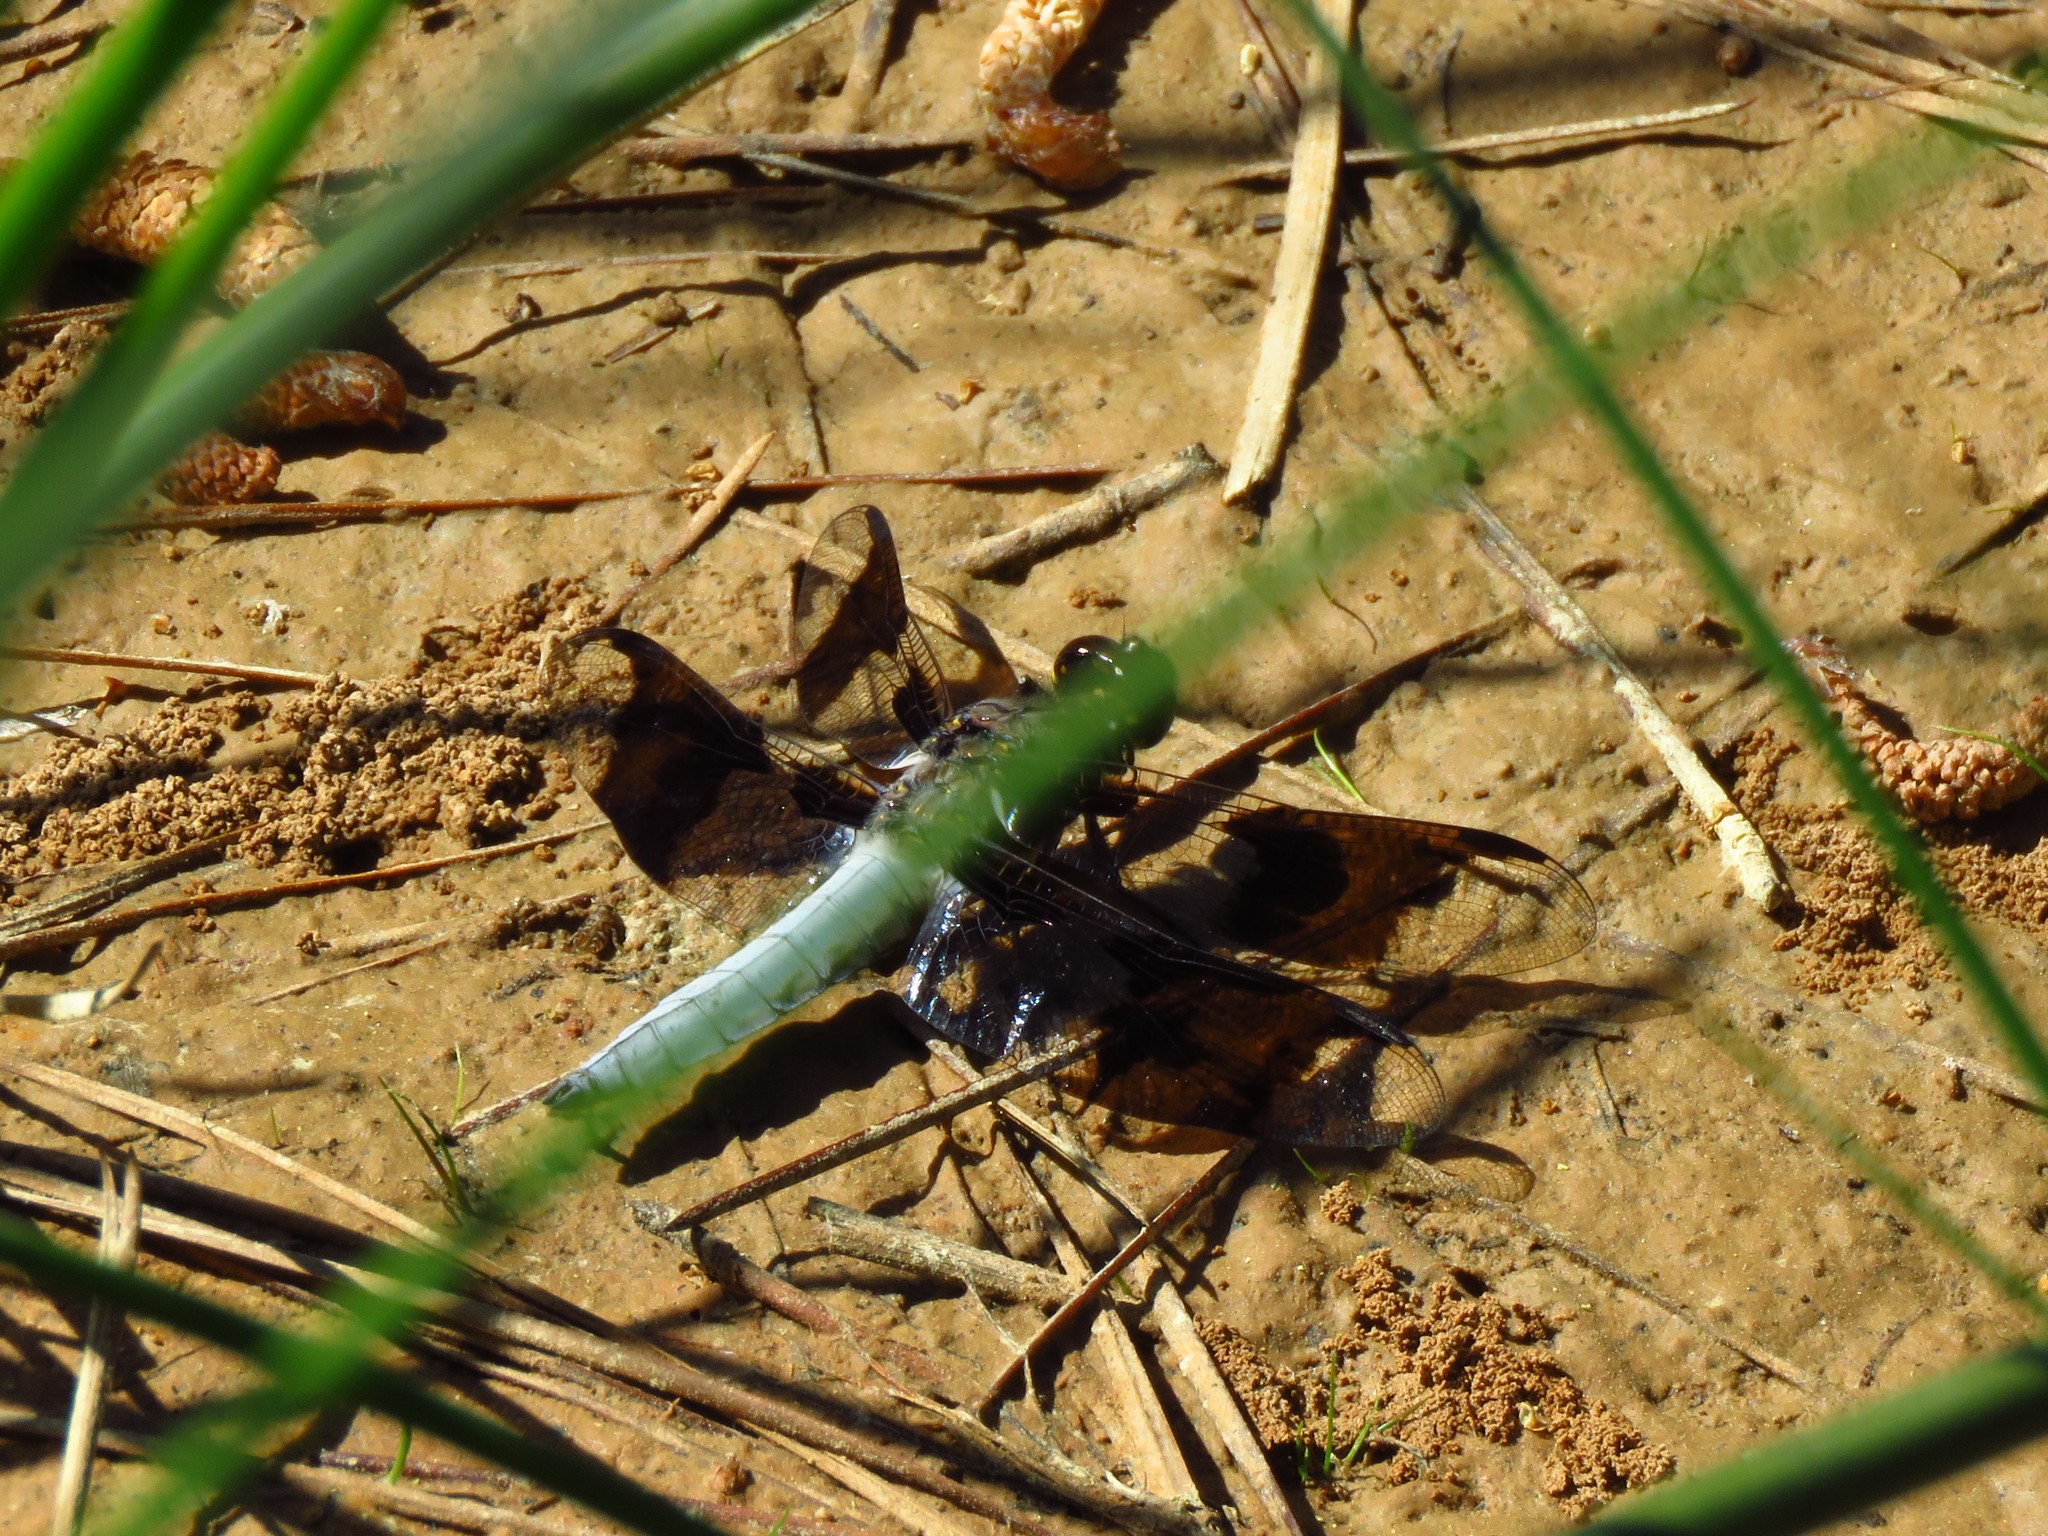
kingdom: Animalia
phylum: Arthropoda
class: Insecta
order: Odonata
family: Libellulidae
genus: Plathemis
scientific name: Plathemis lydia
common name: Common whitetail
